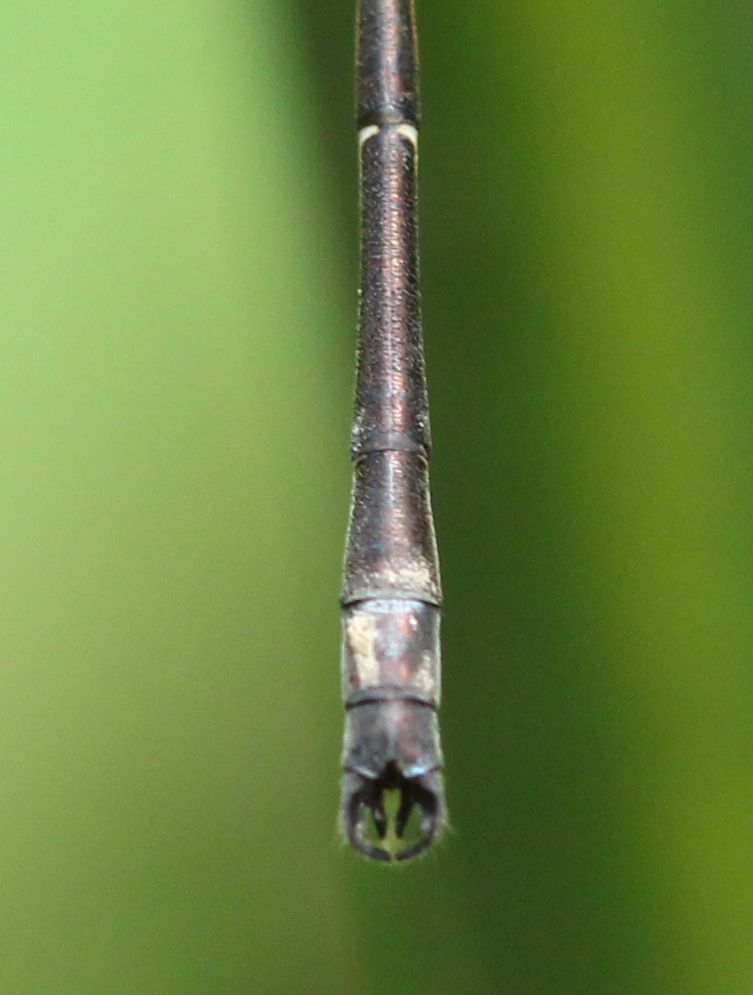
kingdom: Animalia
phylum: Arthropoda
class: Insecta
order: Odonata
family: Lestidae
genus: Lestes
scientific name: Lestes rectangularis
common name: Slender spreadwing
